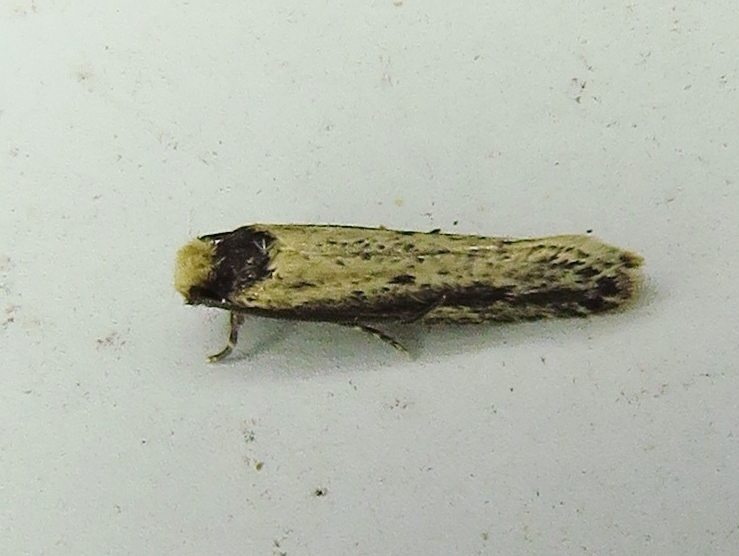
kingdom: Animalia
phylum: Arthropoda
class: Insecta
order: Lepidoptera
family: Tineidae
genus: Tinea
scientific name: Tinea apicimaculella
